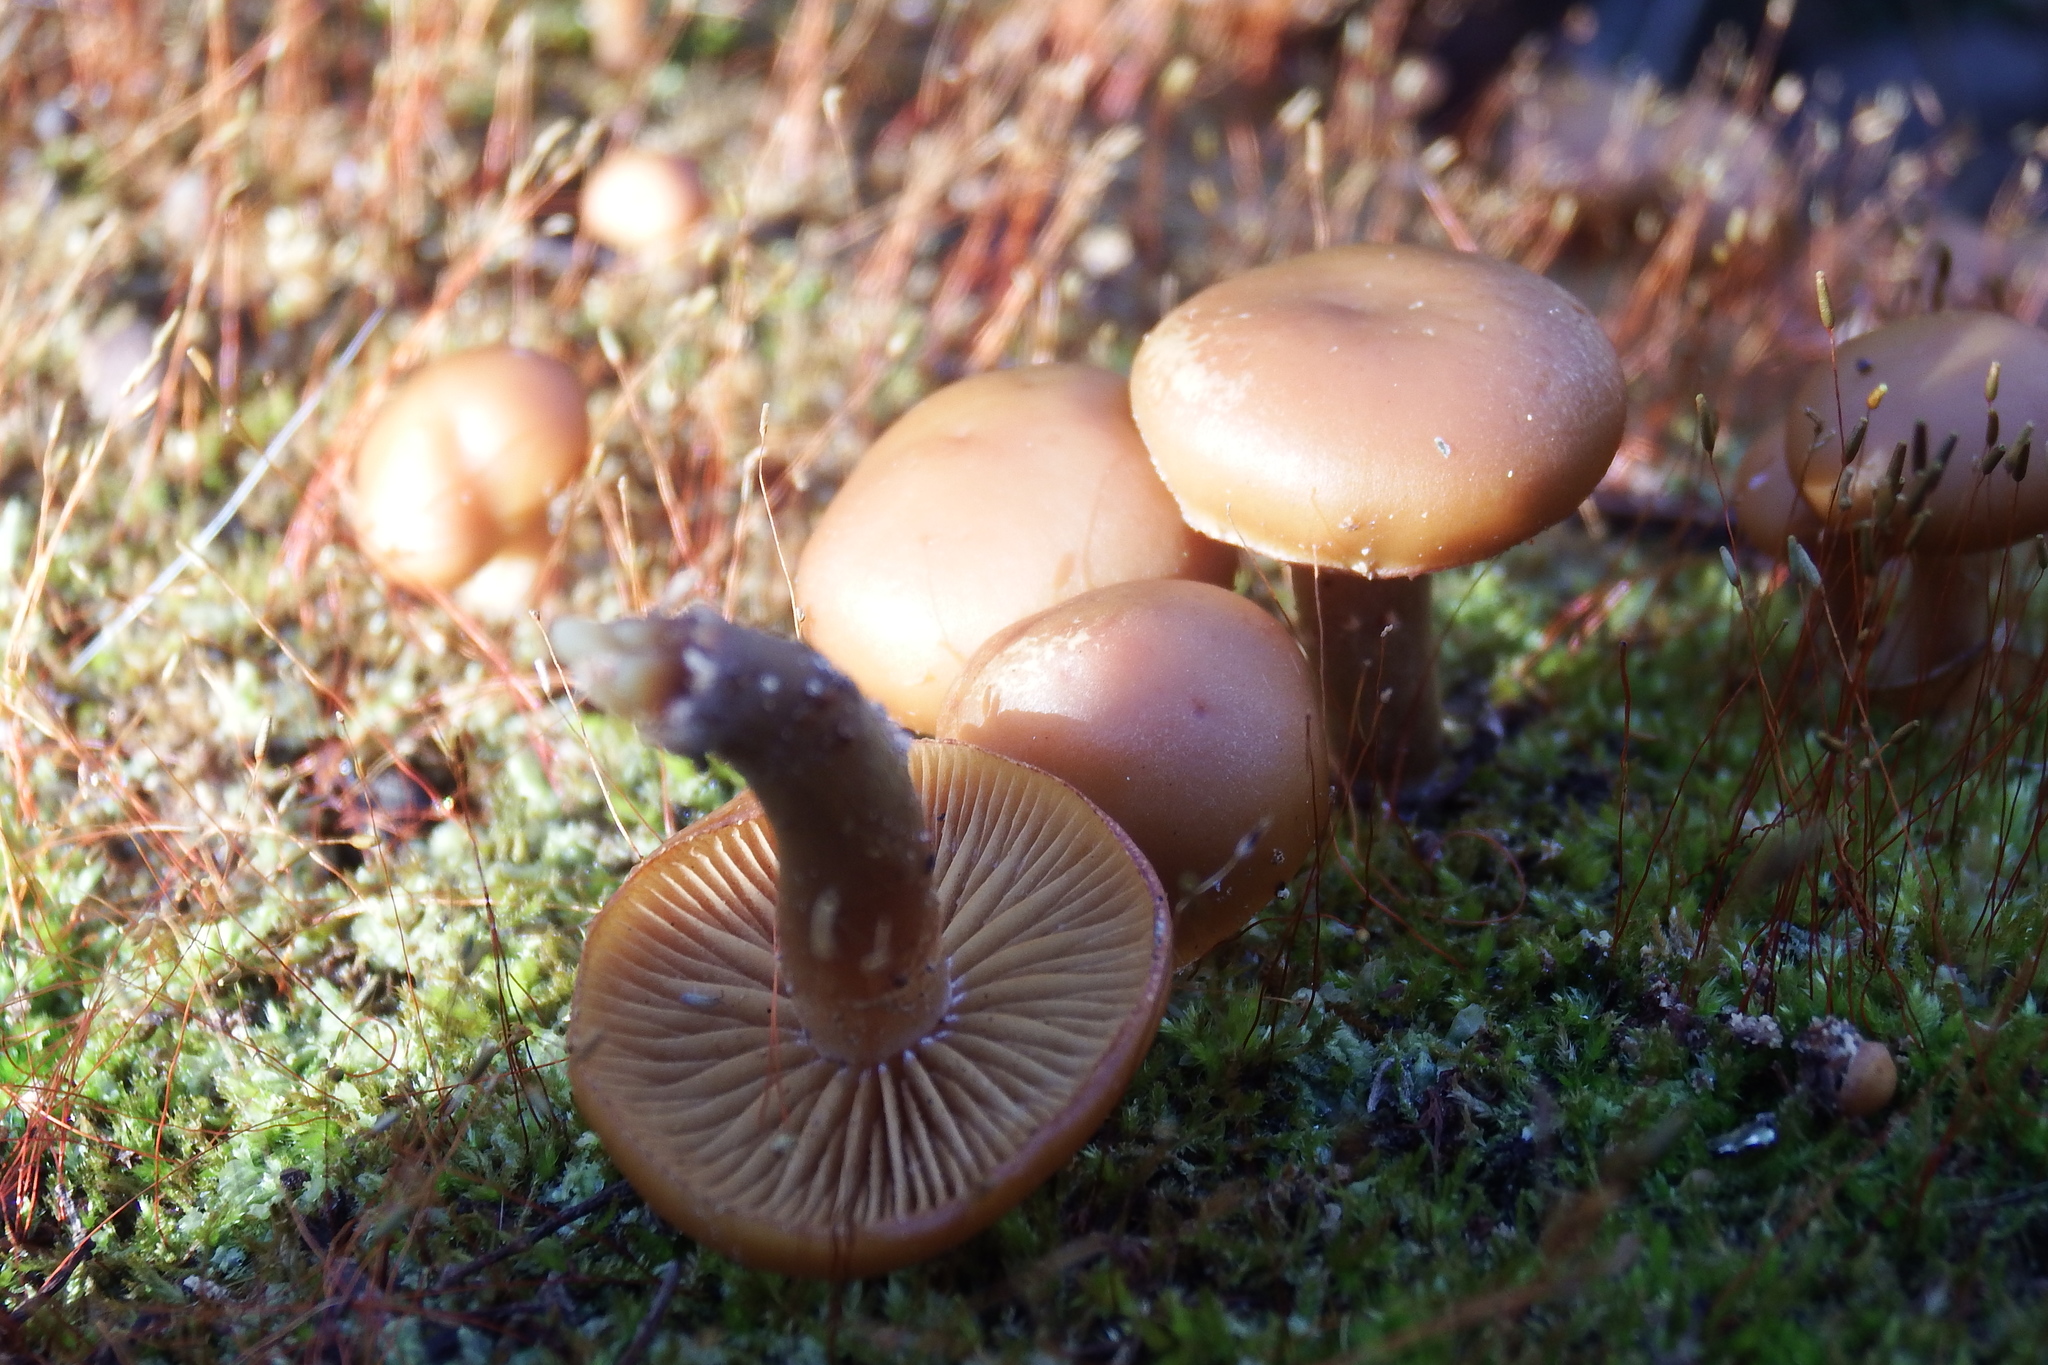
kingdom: Fungi
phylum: Basidiomycota
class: Agaricomycetes
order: Agaricales
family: Hymenogastraceae
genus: Galerina
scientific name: Galerina marginata
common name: Funeral bell
